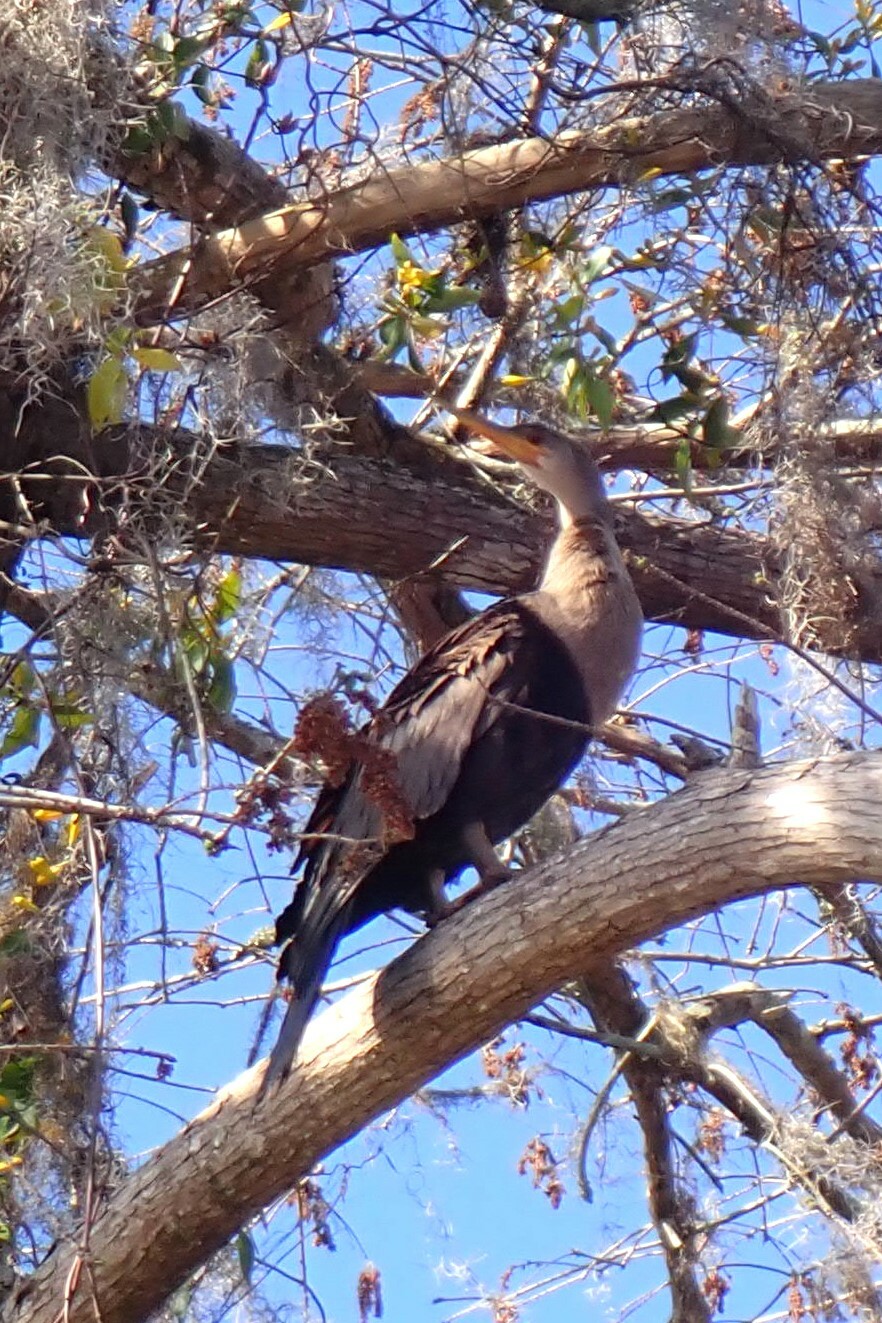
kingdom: Animalia
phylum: Chordata
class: Aves
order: Suliformes
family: Anhingidae
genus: Anhinga
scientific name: Anhinga anhinga
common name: Anhinga
